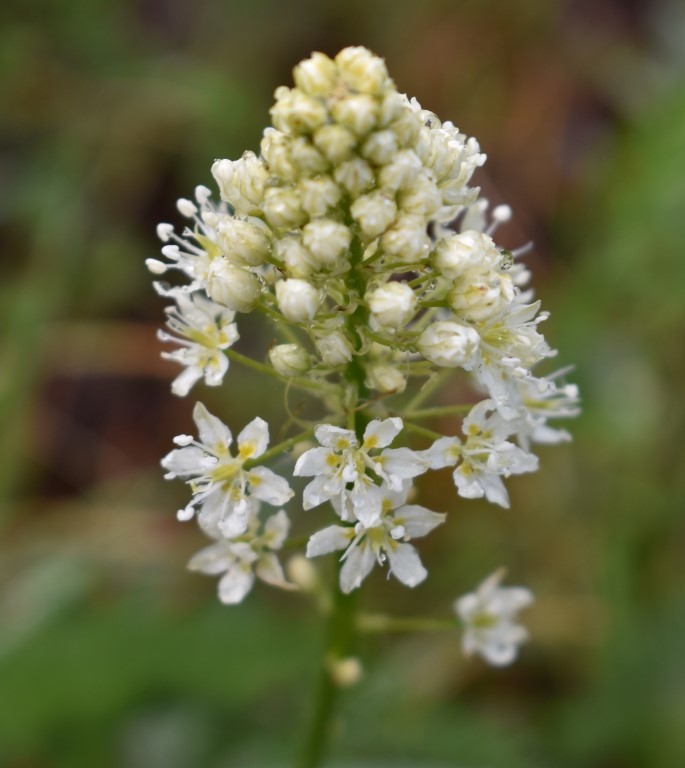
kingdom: Plantae
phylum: Tracheophyta
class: Liliopsida
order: Liliales
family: Melanthiaceae
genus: Toxicoscordion
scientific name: Toxicoscordion venenosum
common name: Meadow death camas
